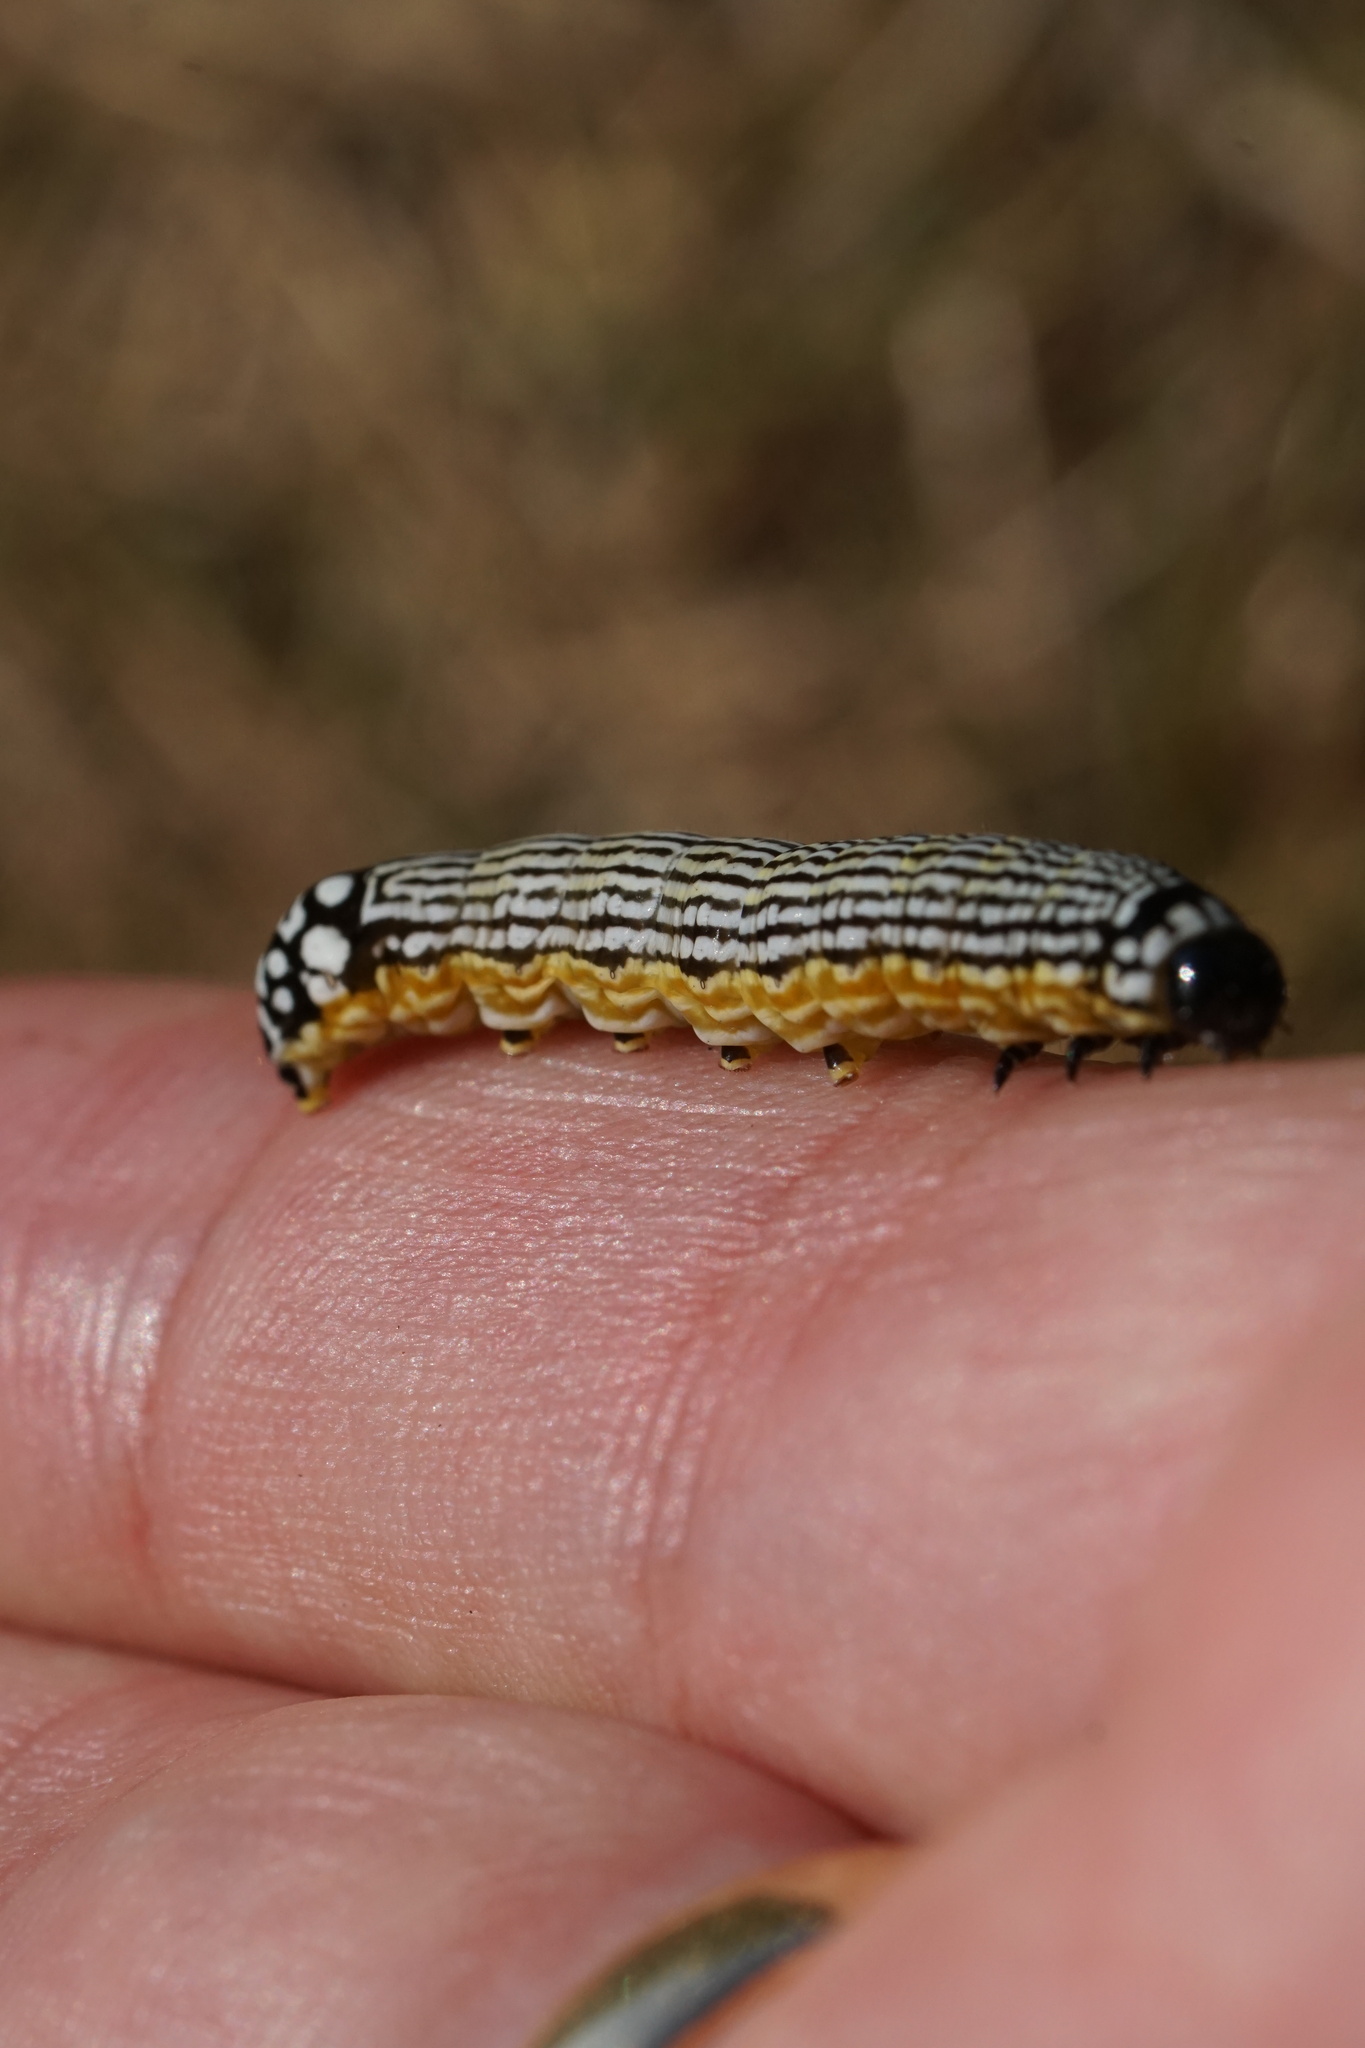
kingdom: Animalia
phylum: Arthropoda
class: Insecta
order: Lepidoptera
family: Noctuidae
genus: Phosphila
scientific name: Phosphila turbulenta
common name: Turbulent phosphila moth
